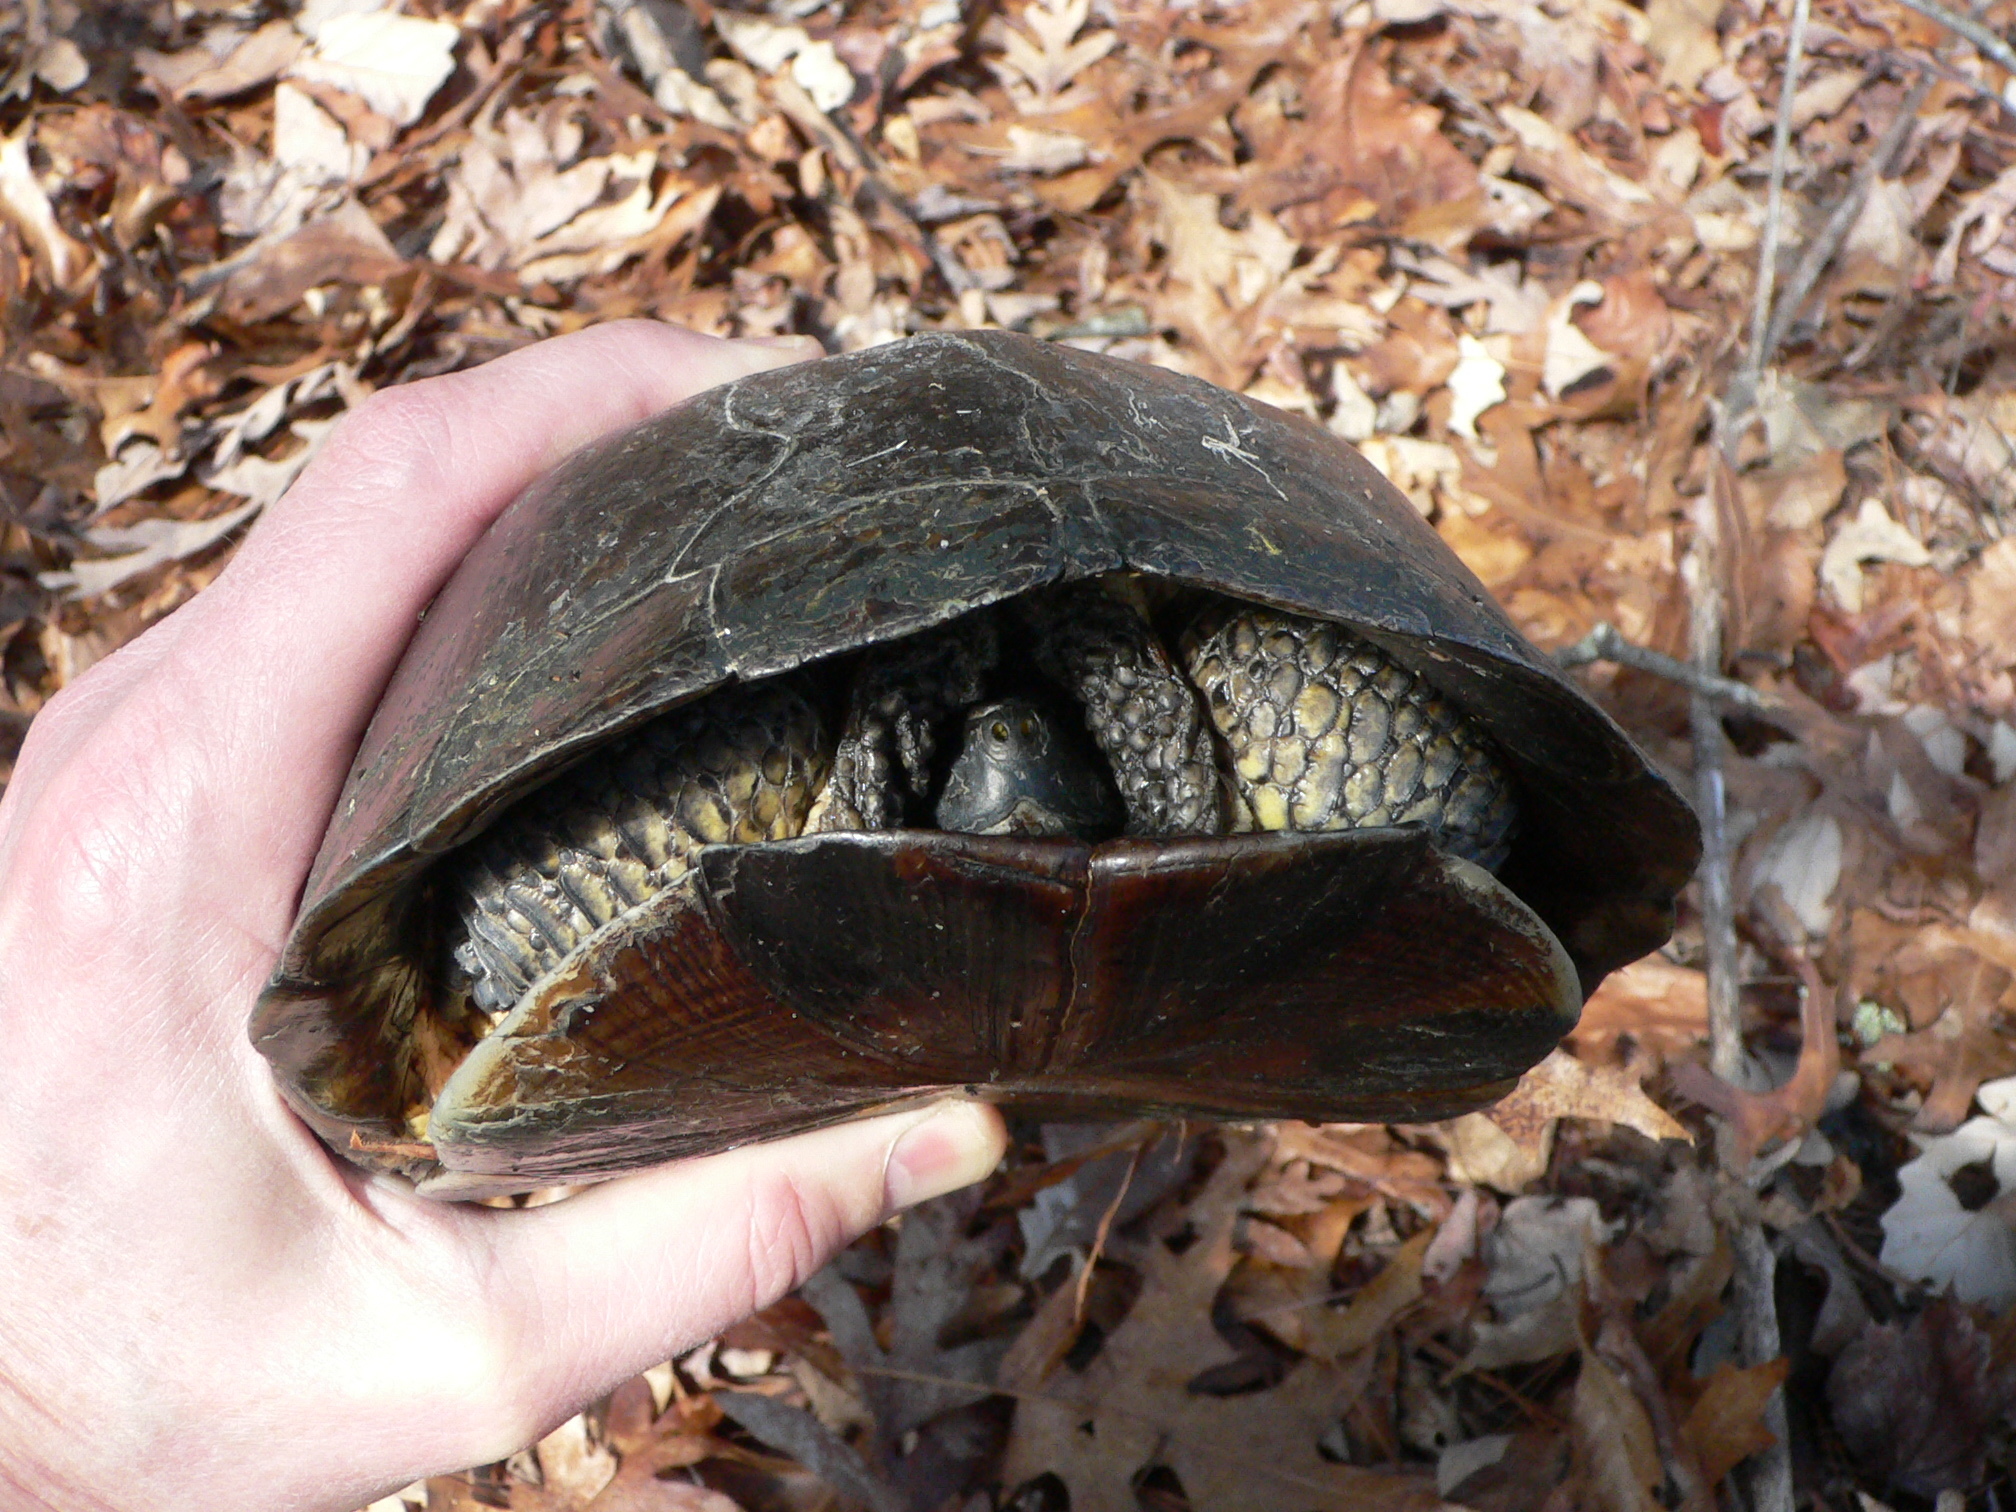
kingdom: Animalia
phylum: Chordata
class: Testudines
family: Emydidae
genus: Emys
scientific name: Emys blandingii
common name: Blanding's turtle
